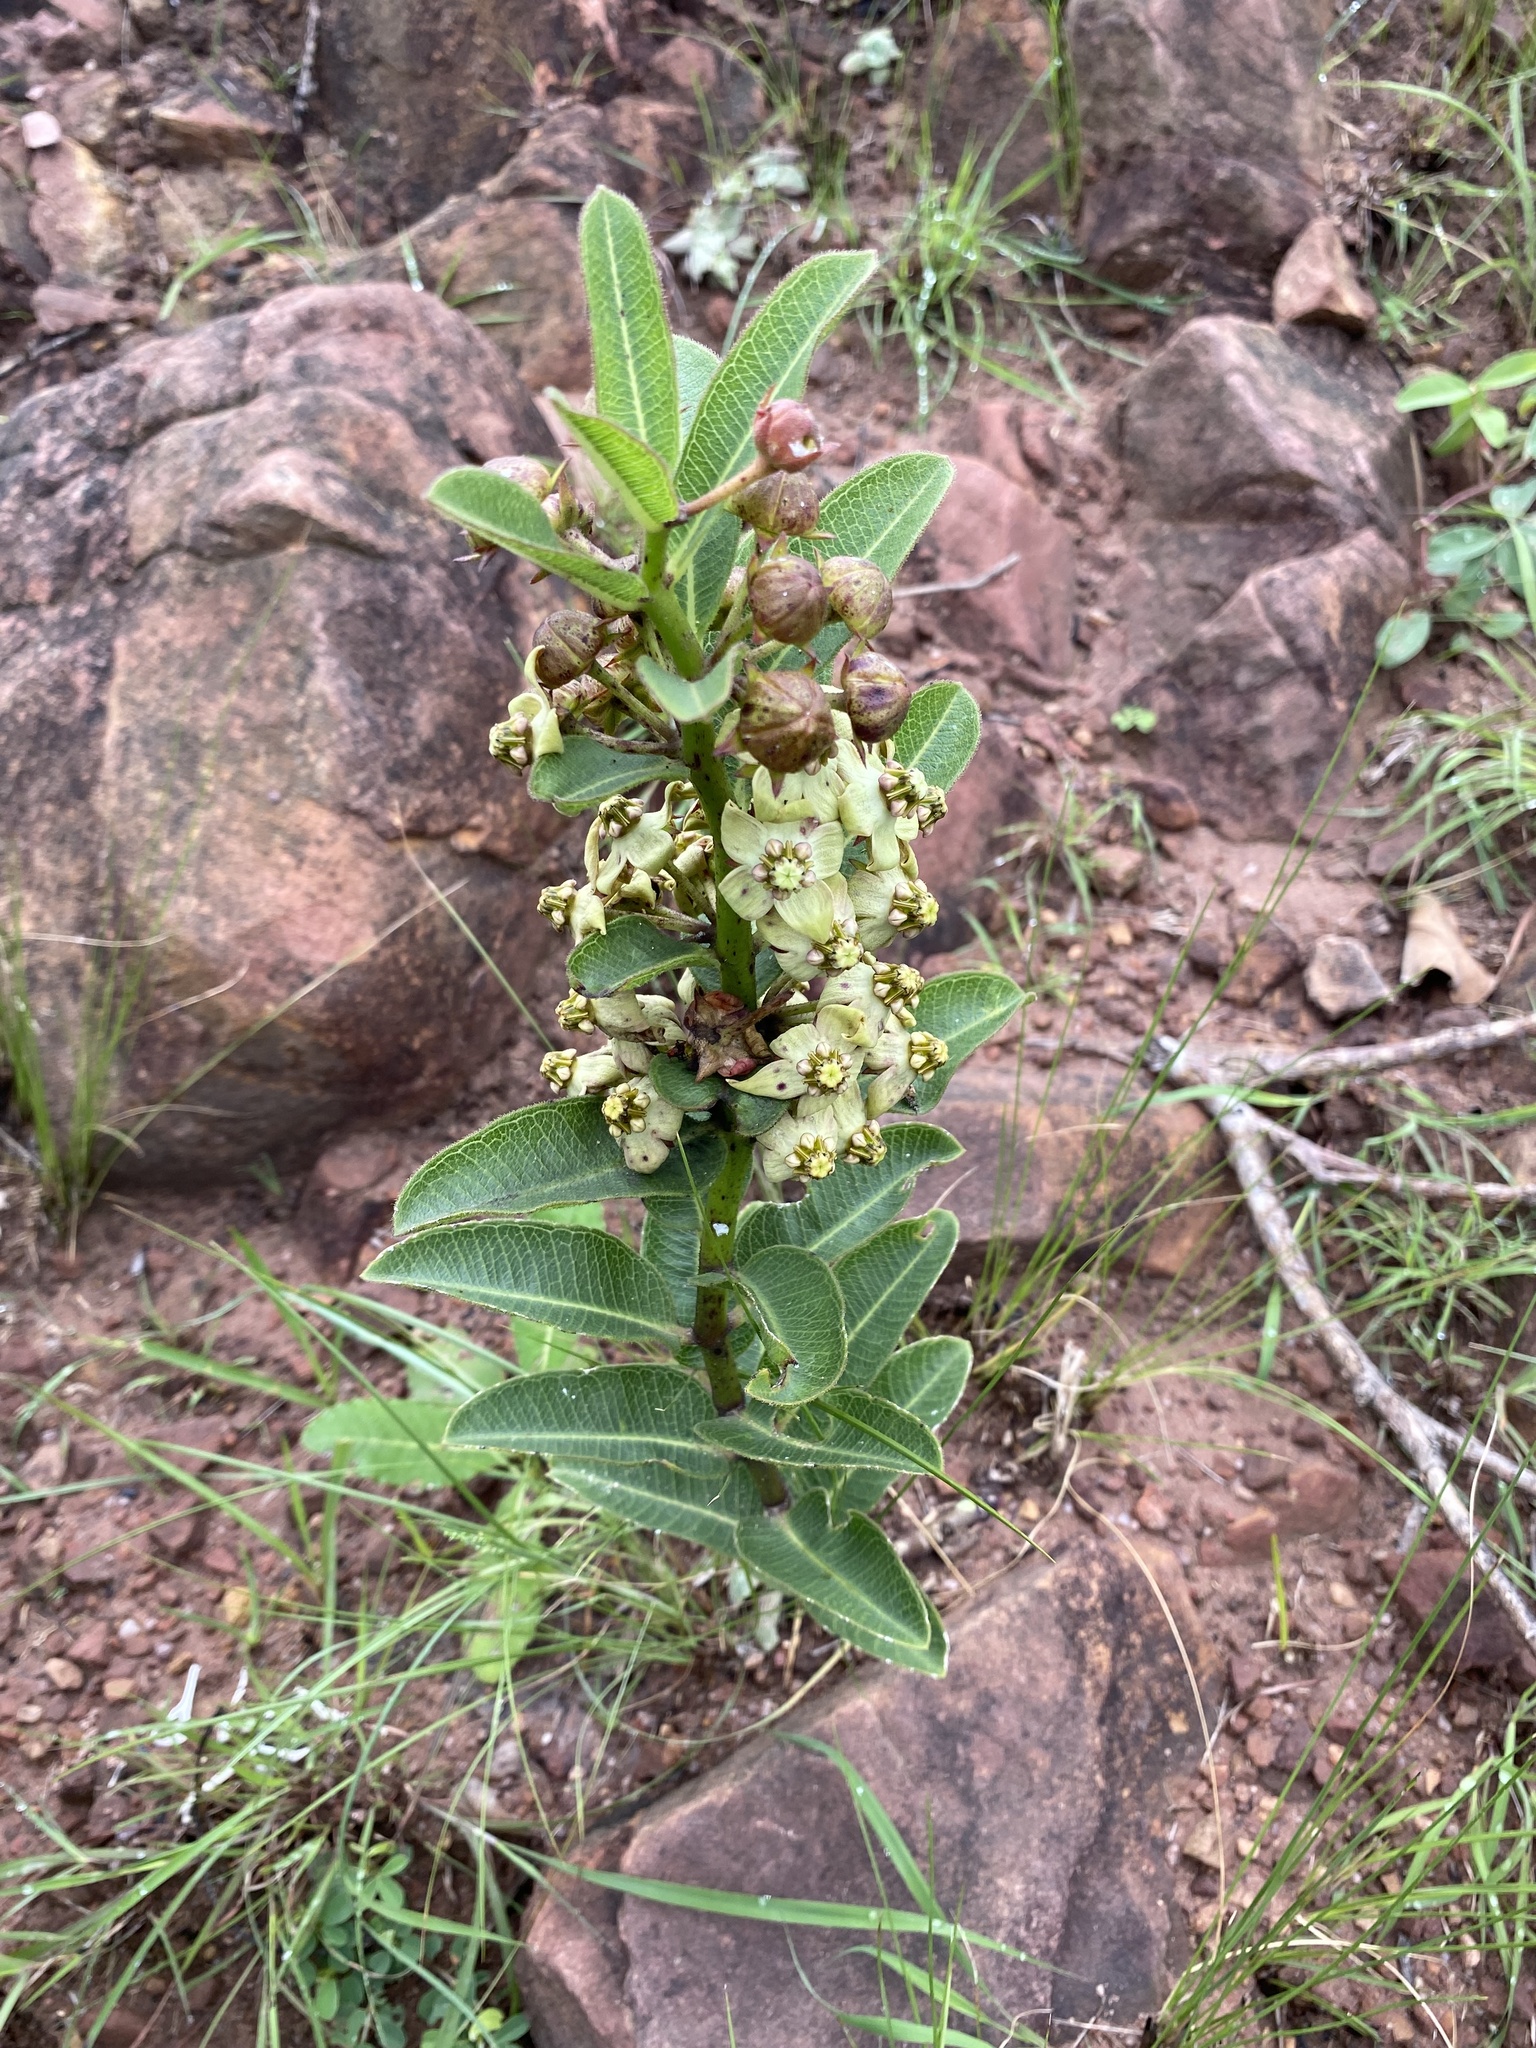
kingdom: Plantae
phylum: Tracheophyta
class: Magnoliopsida
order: Gentianales
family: Apocynaceae
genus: Pachycarpus
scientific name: Pachycarpus asperifolius
